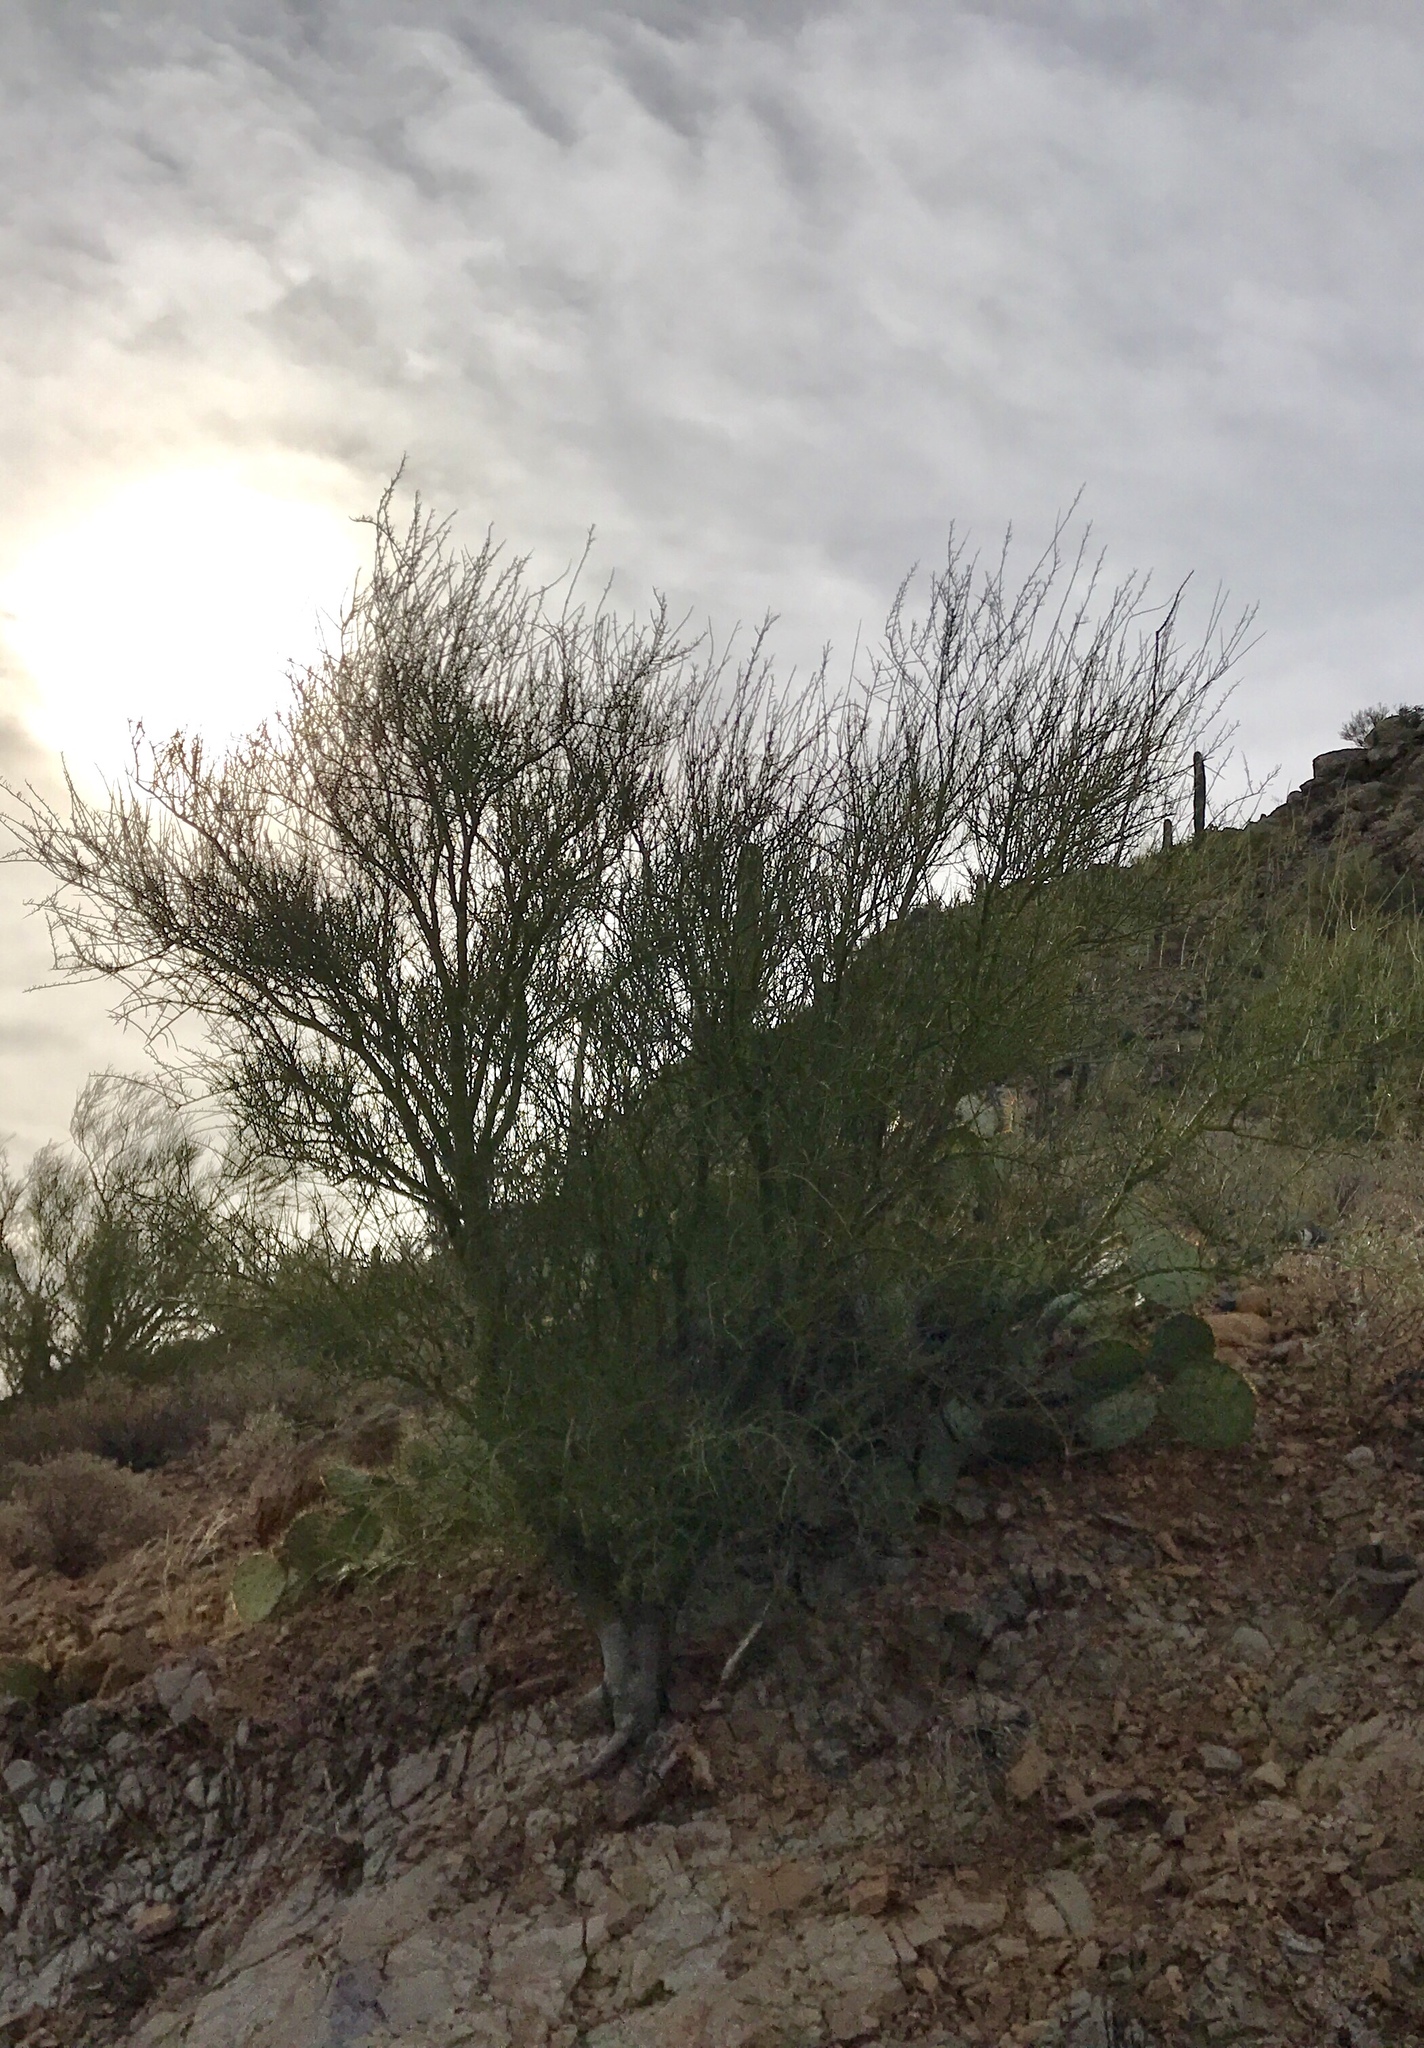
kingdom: Plantae
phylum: Tracheophyta
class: Magnoliopsida
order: Fabales
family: Fabaceae
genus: Parkinsonia
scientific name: Parkinsonia microphylla
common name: Yellow paloverde
